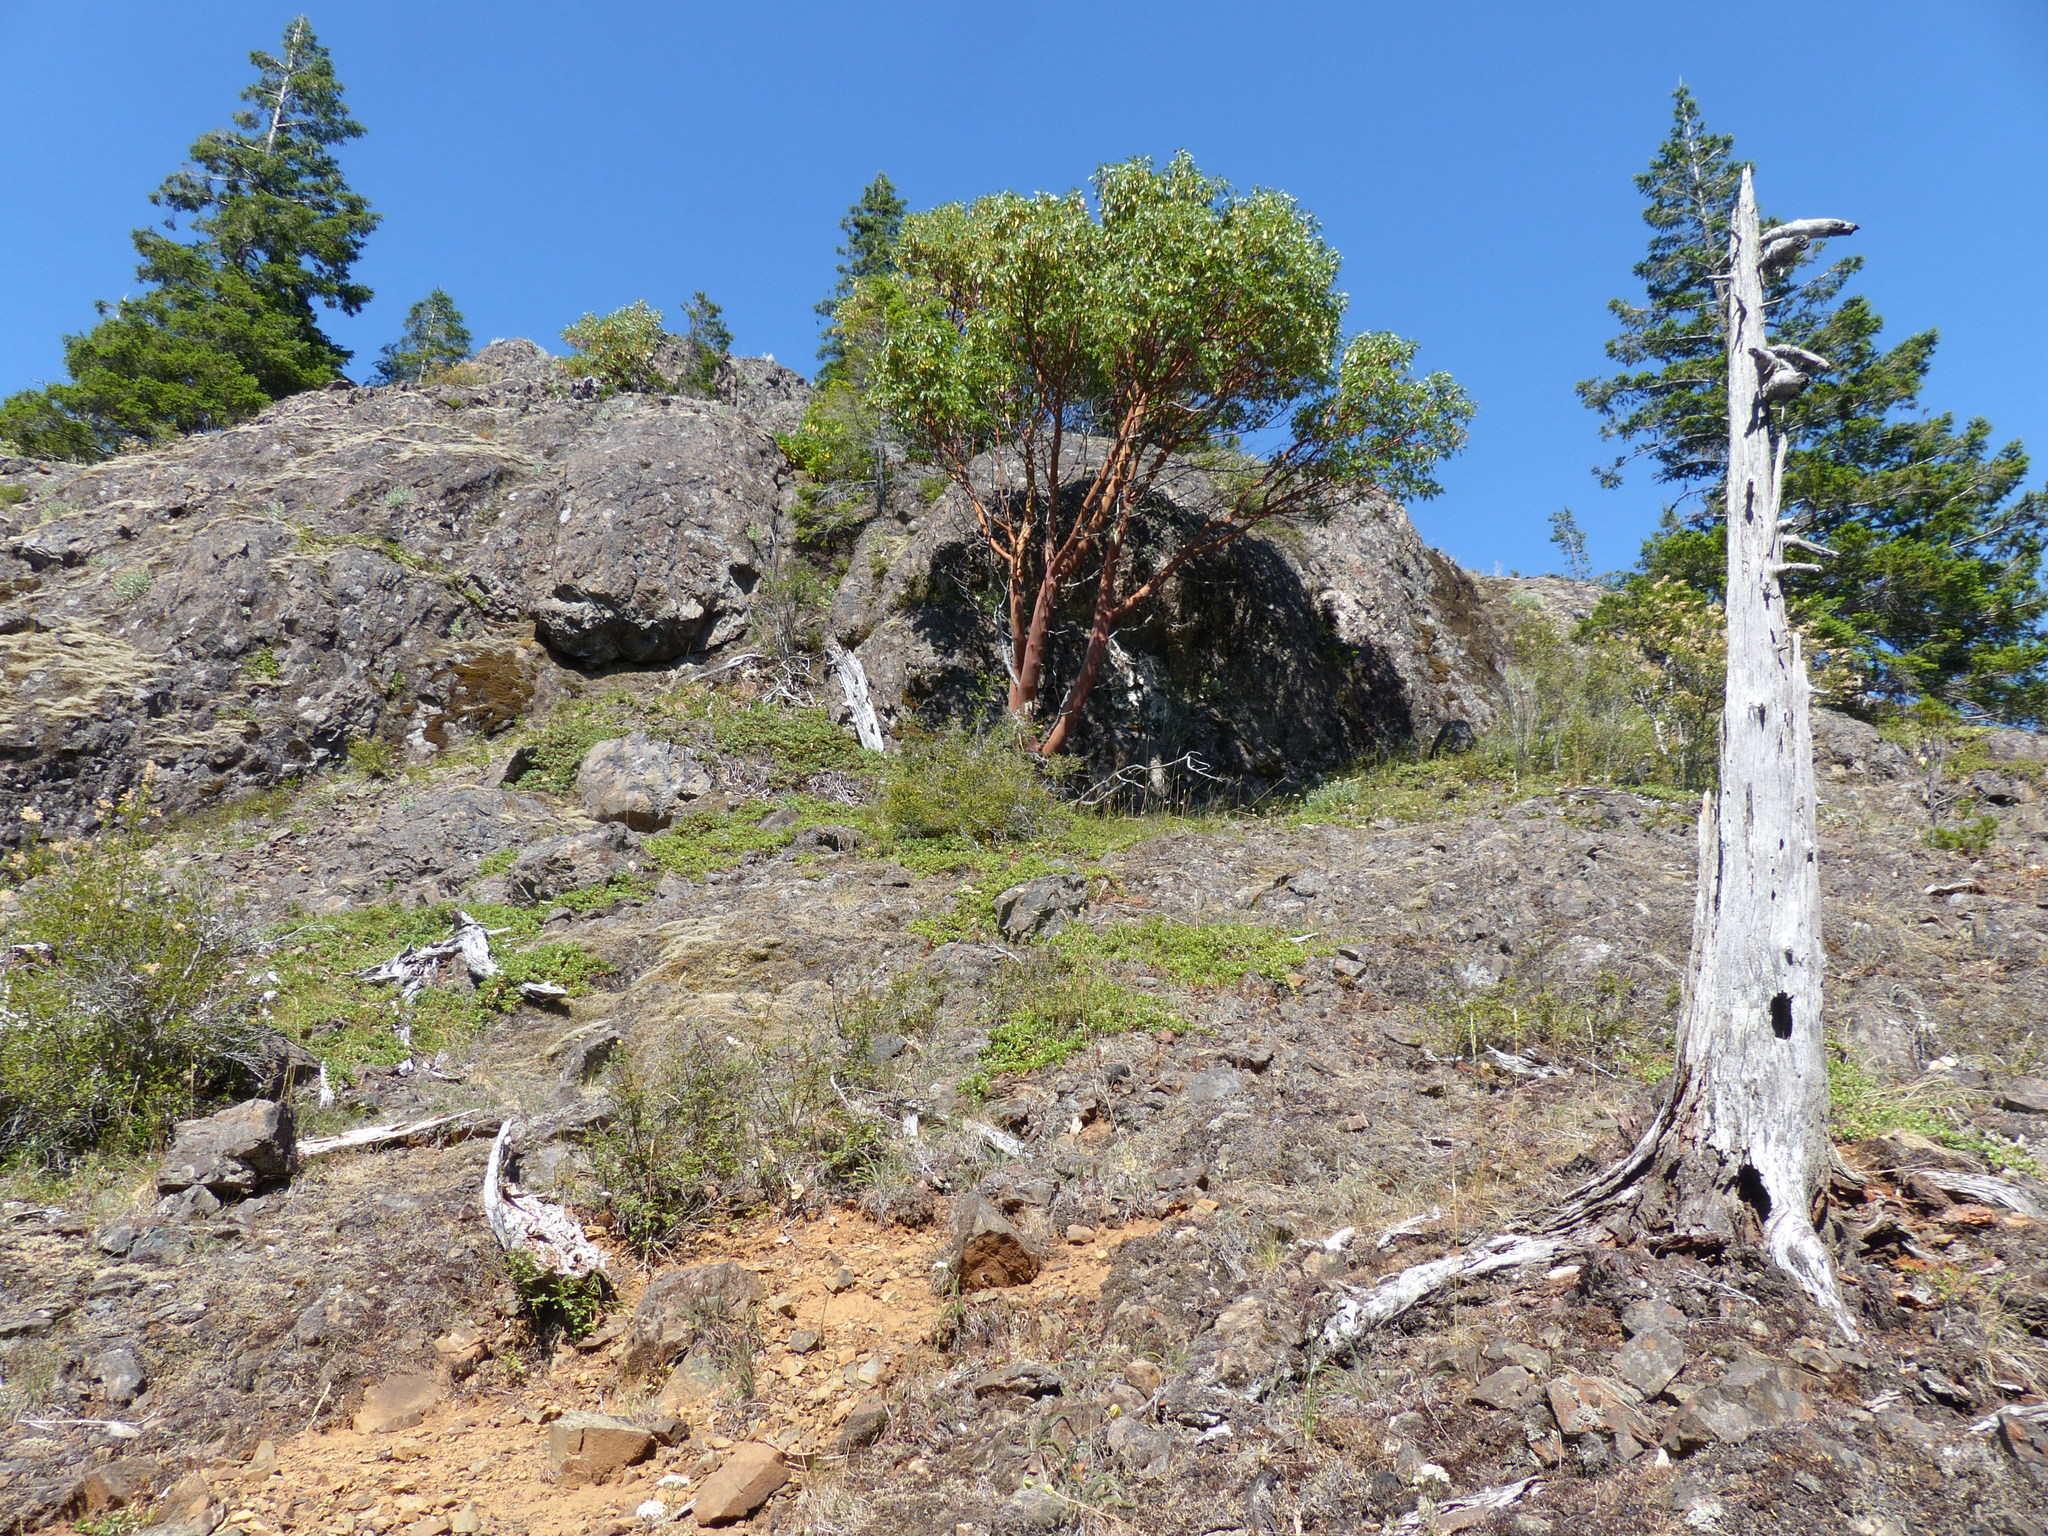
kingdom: Plantae
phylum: Tracheophyta
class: Magnoliopsida
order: Ericales
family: Ericaceae
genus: Arbutus
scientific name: Arbutus menziesii
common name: Pacific madrone
